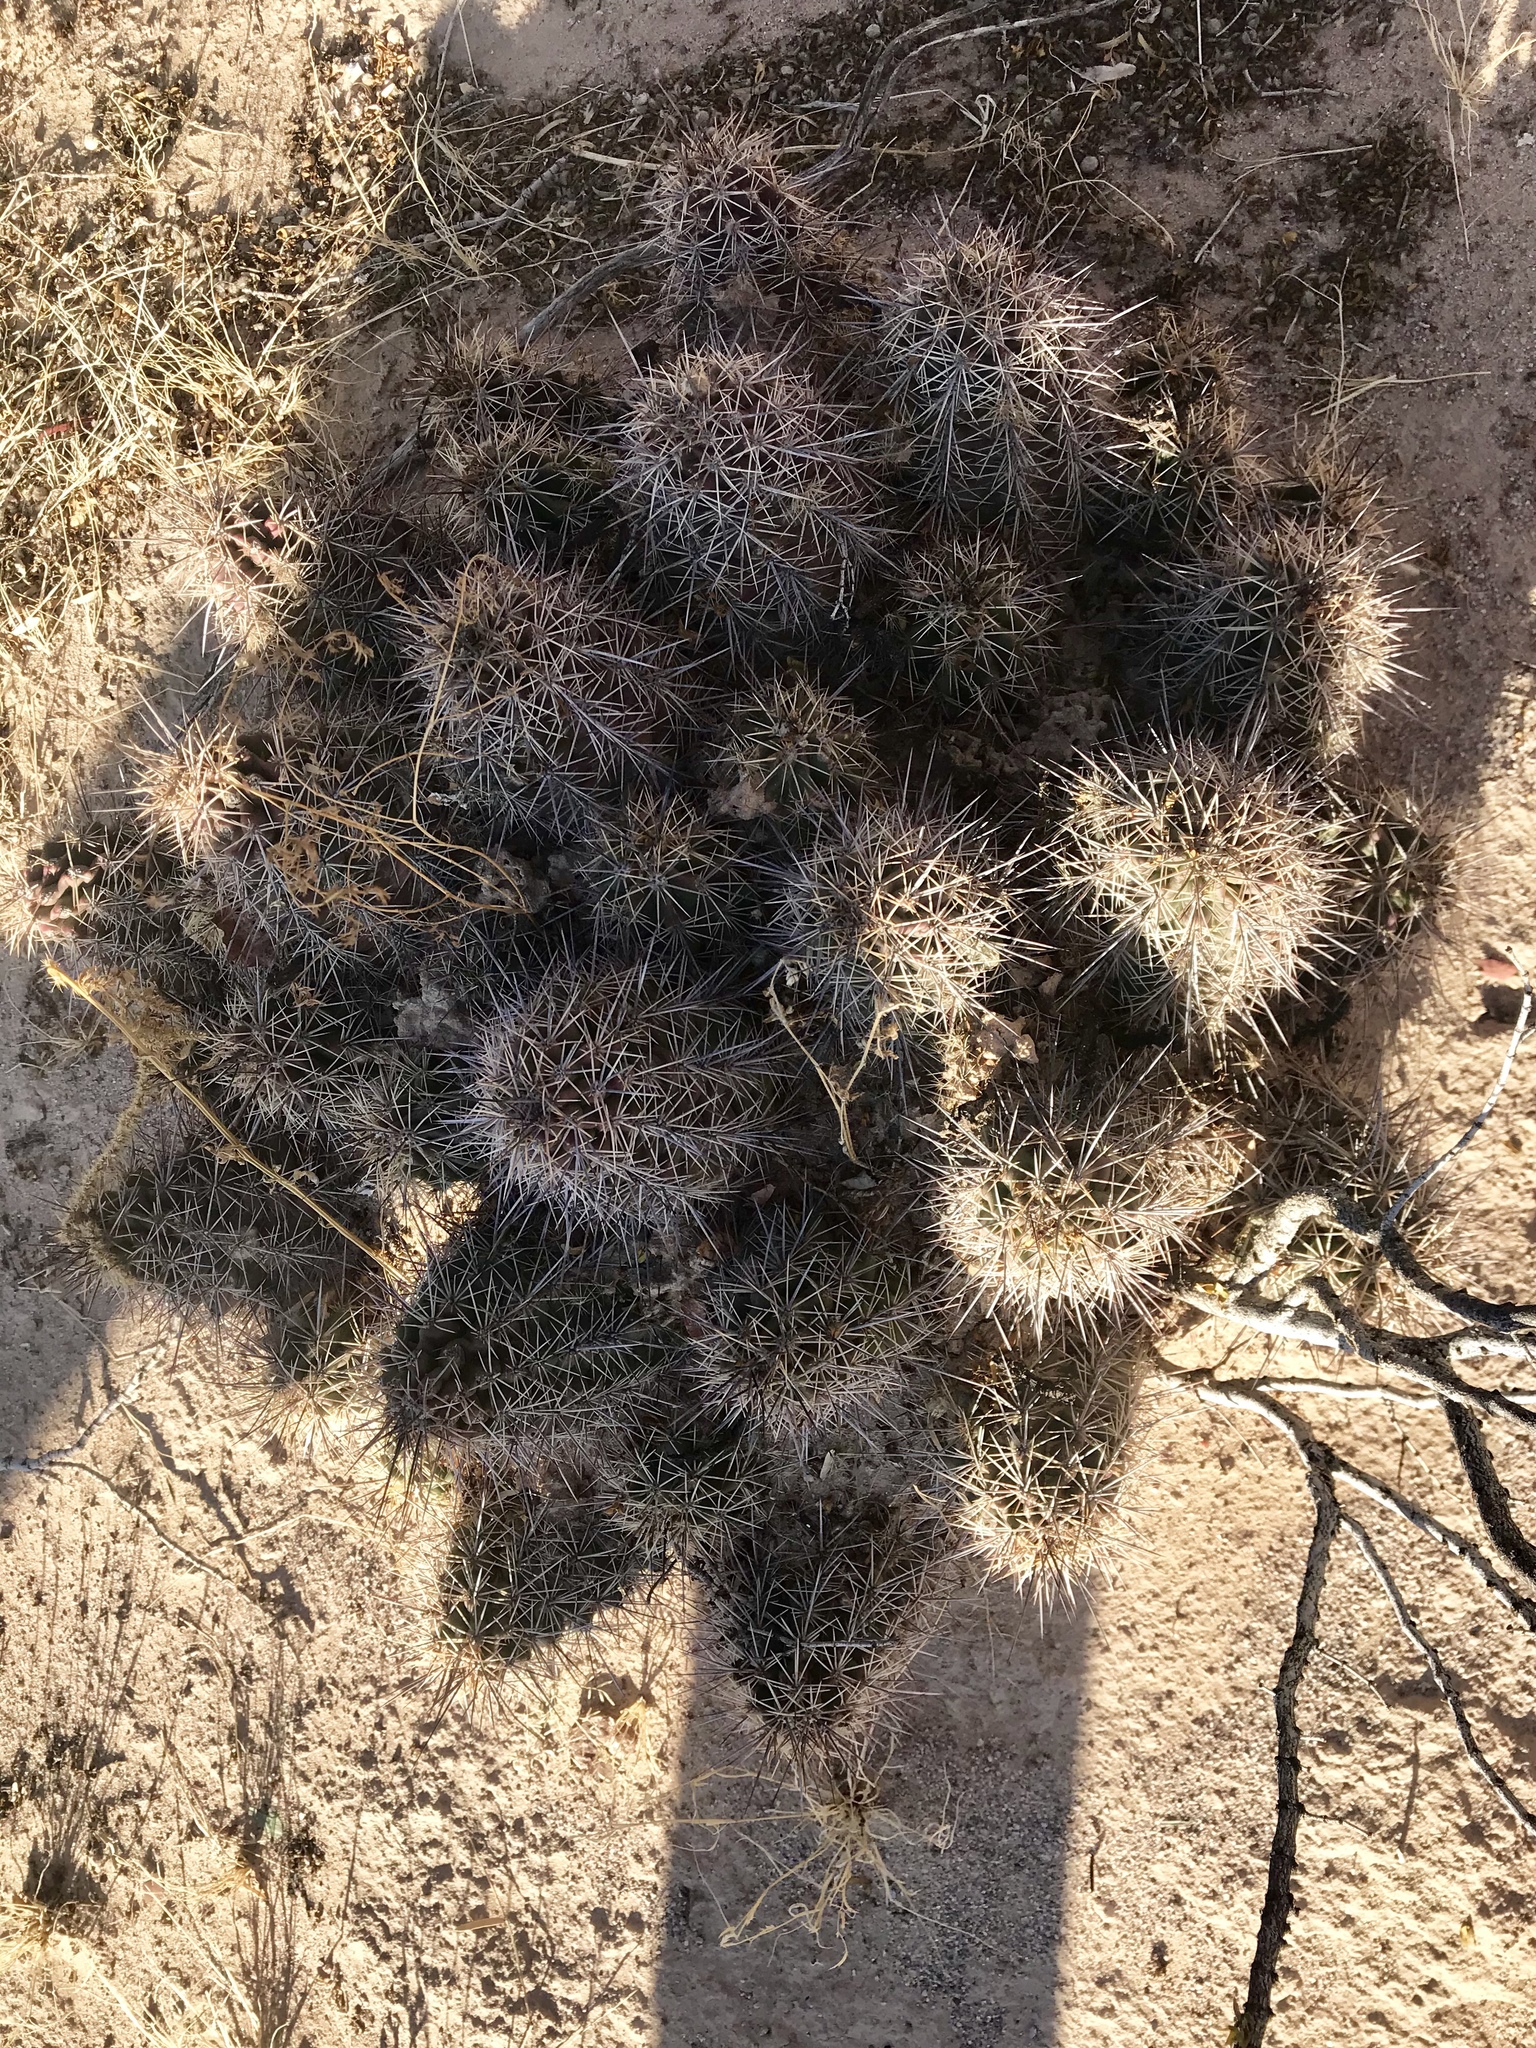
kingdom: Plantae
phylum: Tracheophyta
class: Magnoliopsida
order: Caryophyllales
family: Cactaceae
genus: Echinocereus
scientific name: Echinocereus coccineus
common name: Scarlet hedgehog cactus
